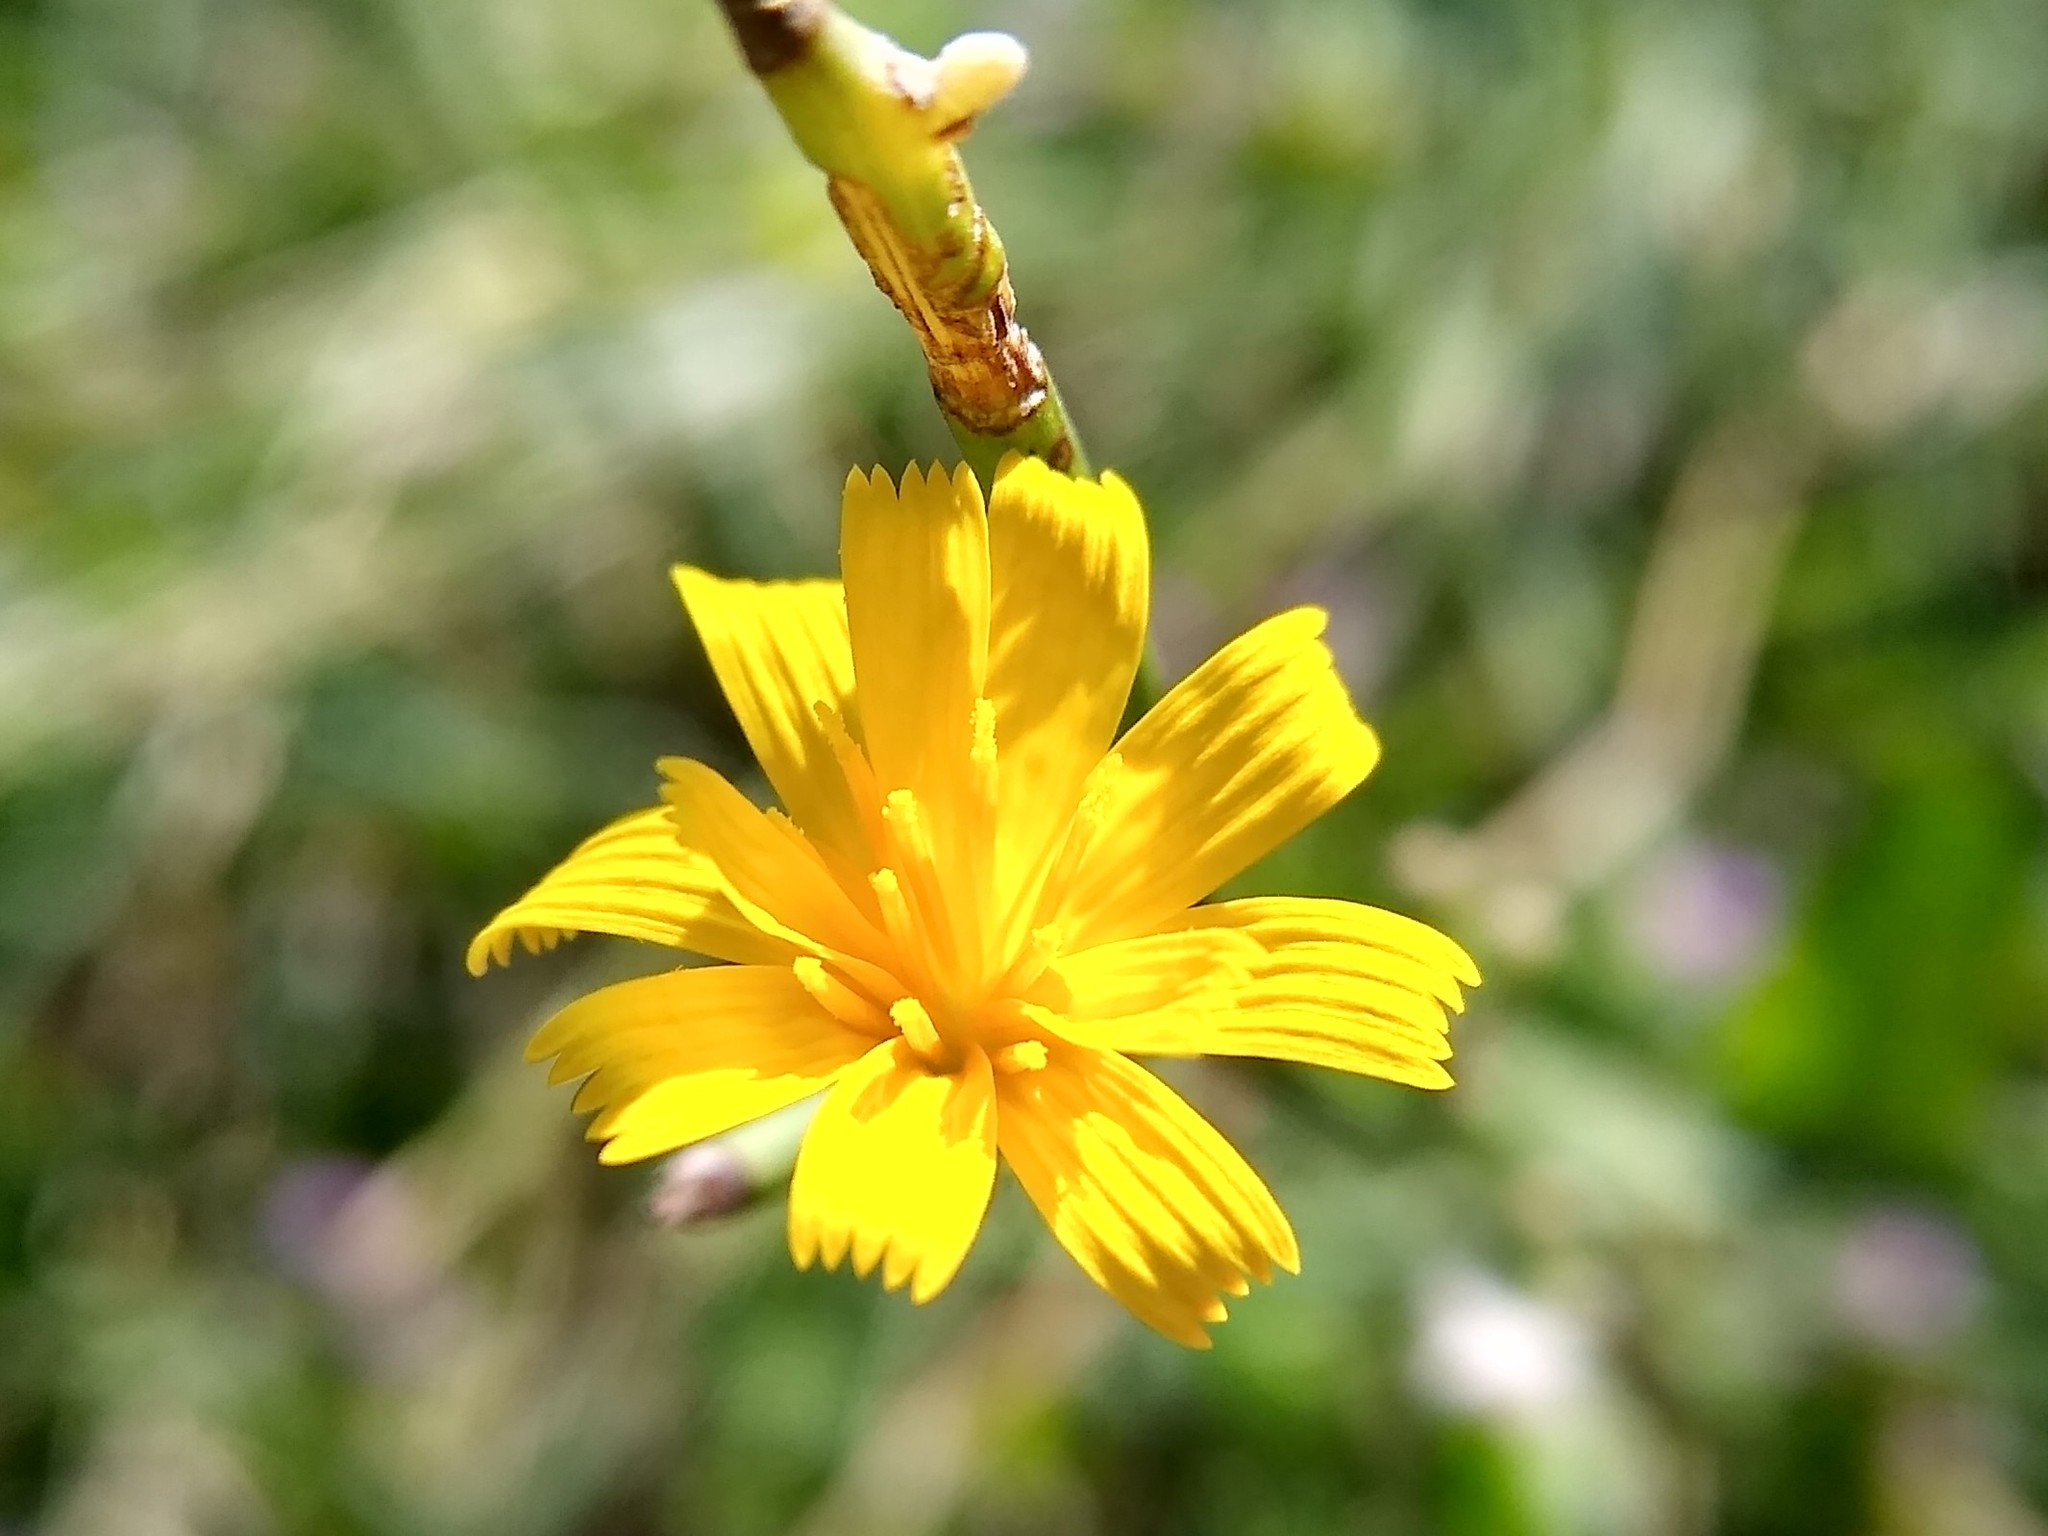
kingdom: Plantae
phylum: Tracheophyta
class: Magnoliopsida
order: Asterales
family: Asteraceae
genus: Chondrilla
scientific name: Chondrilla juncea
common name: Skeleton weed
